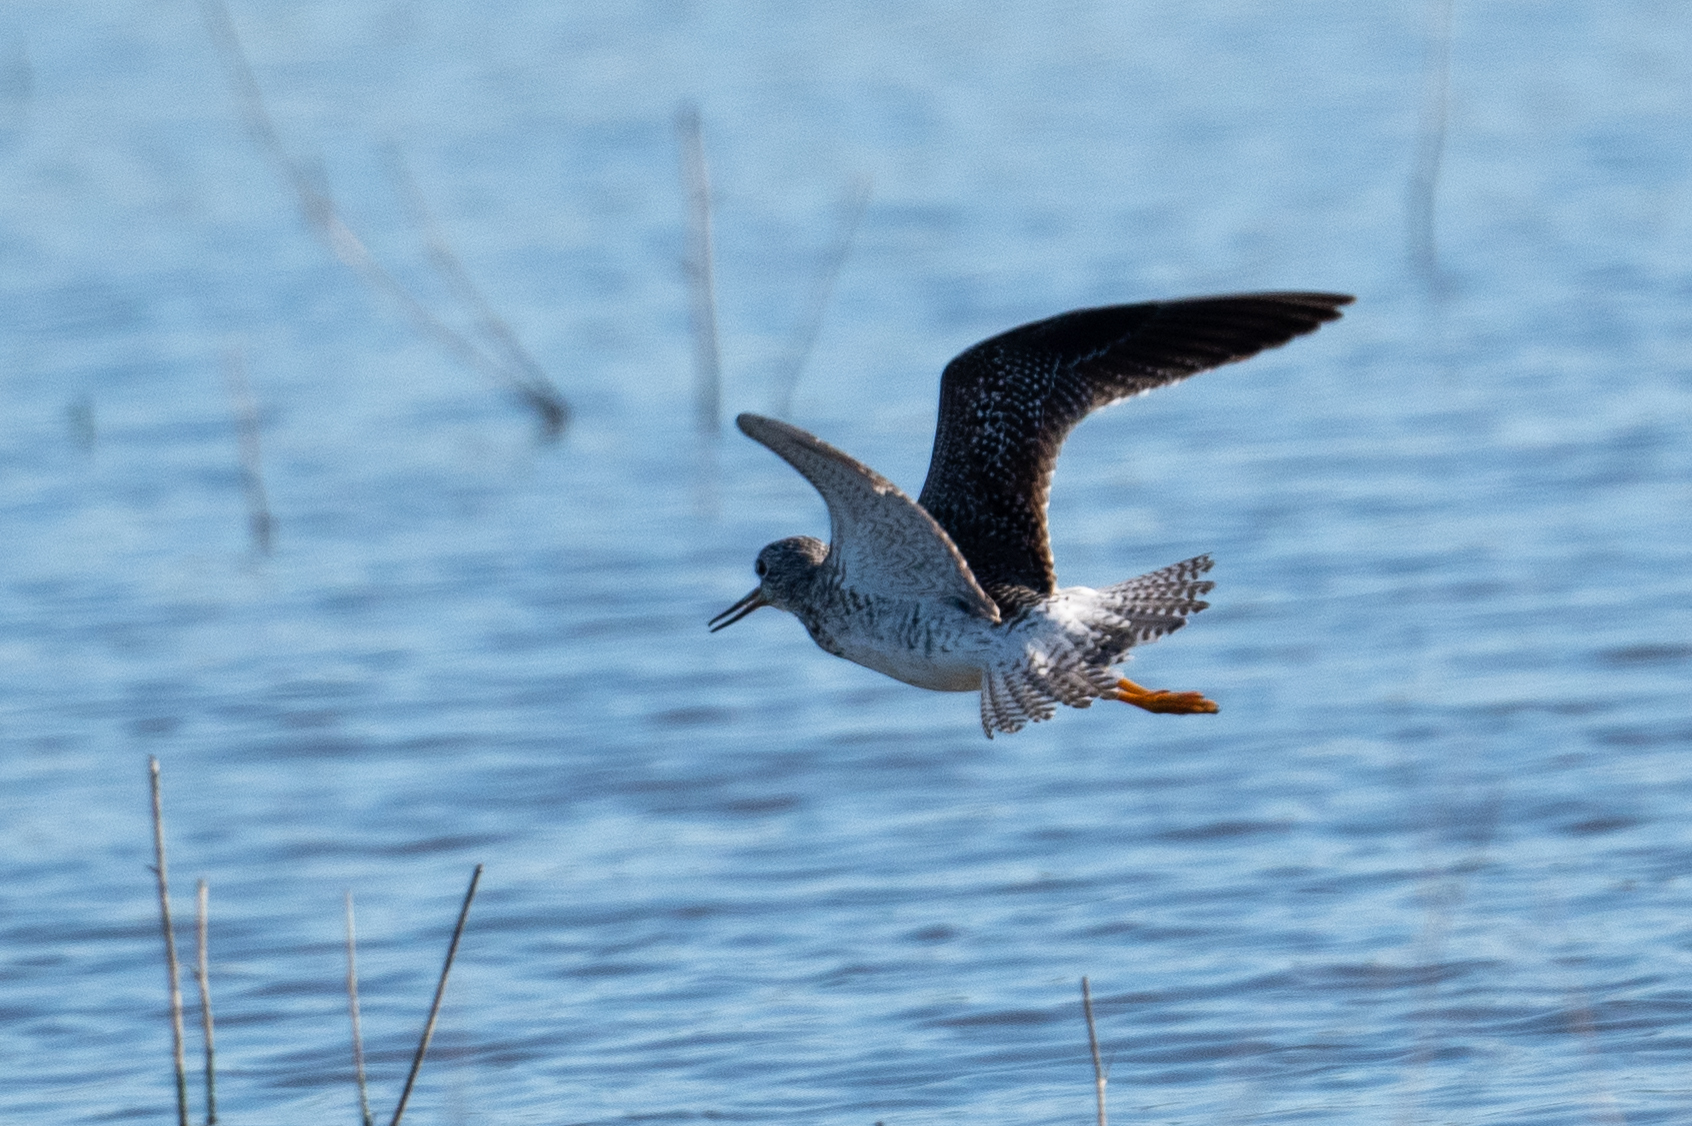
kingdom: Animalia
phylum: Chordata
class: Aves
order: Charadriiformes
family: Scolopacidae
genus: Tringa
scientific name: Tringa melanoleuca
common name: Greater yellowlegs
